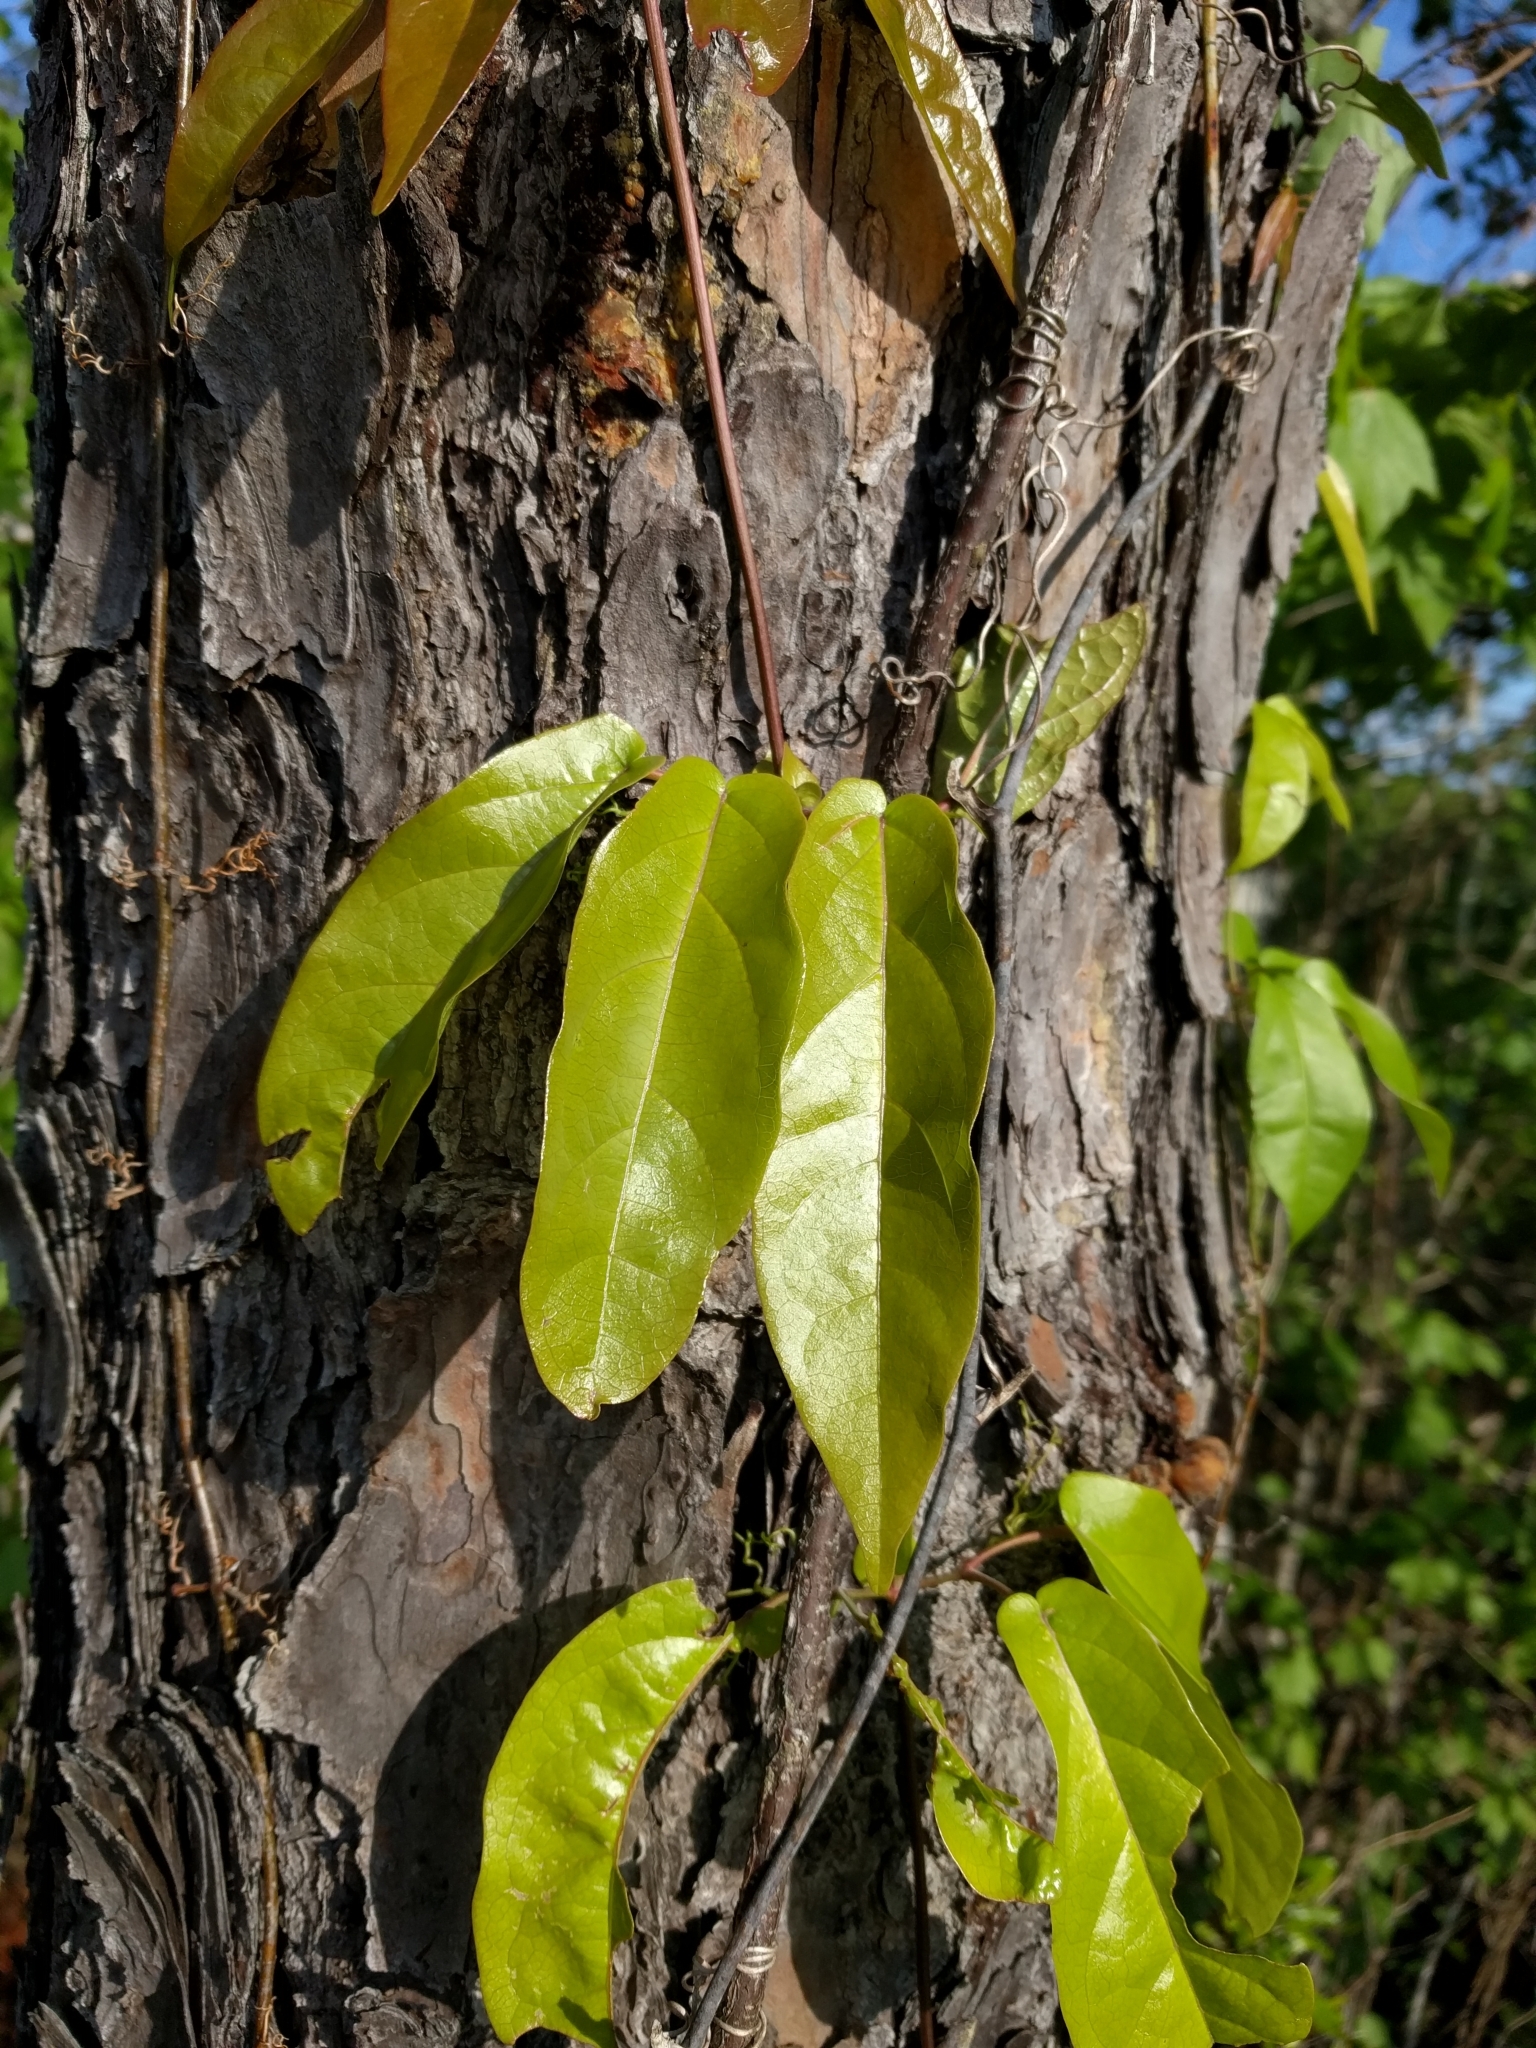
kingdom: Plantae
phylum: Tracheophyta
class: Magnoliopsida
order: Lamiales
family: Bignoniaceae
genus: Bignonia
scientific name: Bignonia capreolata
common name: Crossvine
